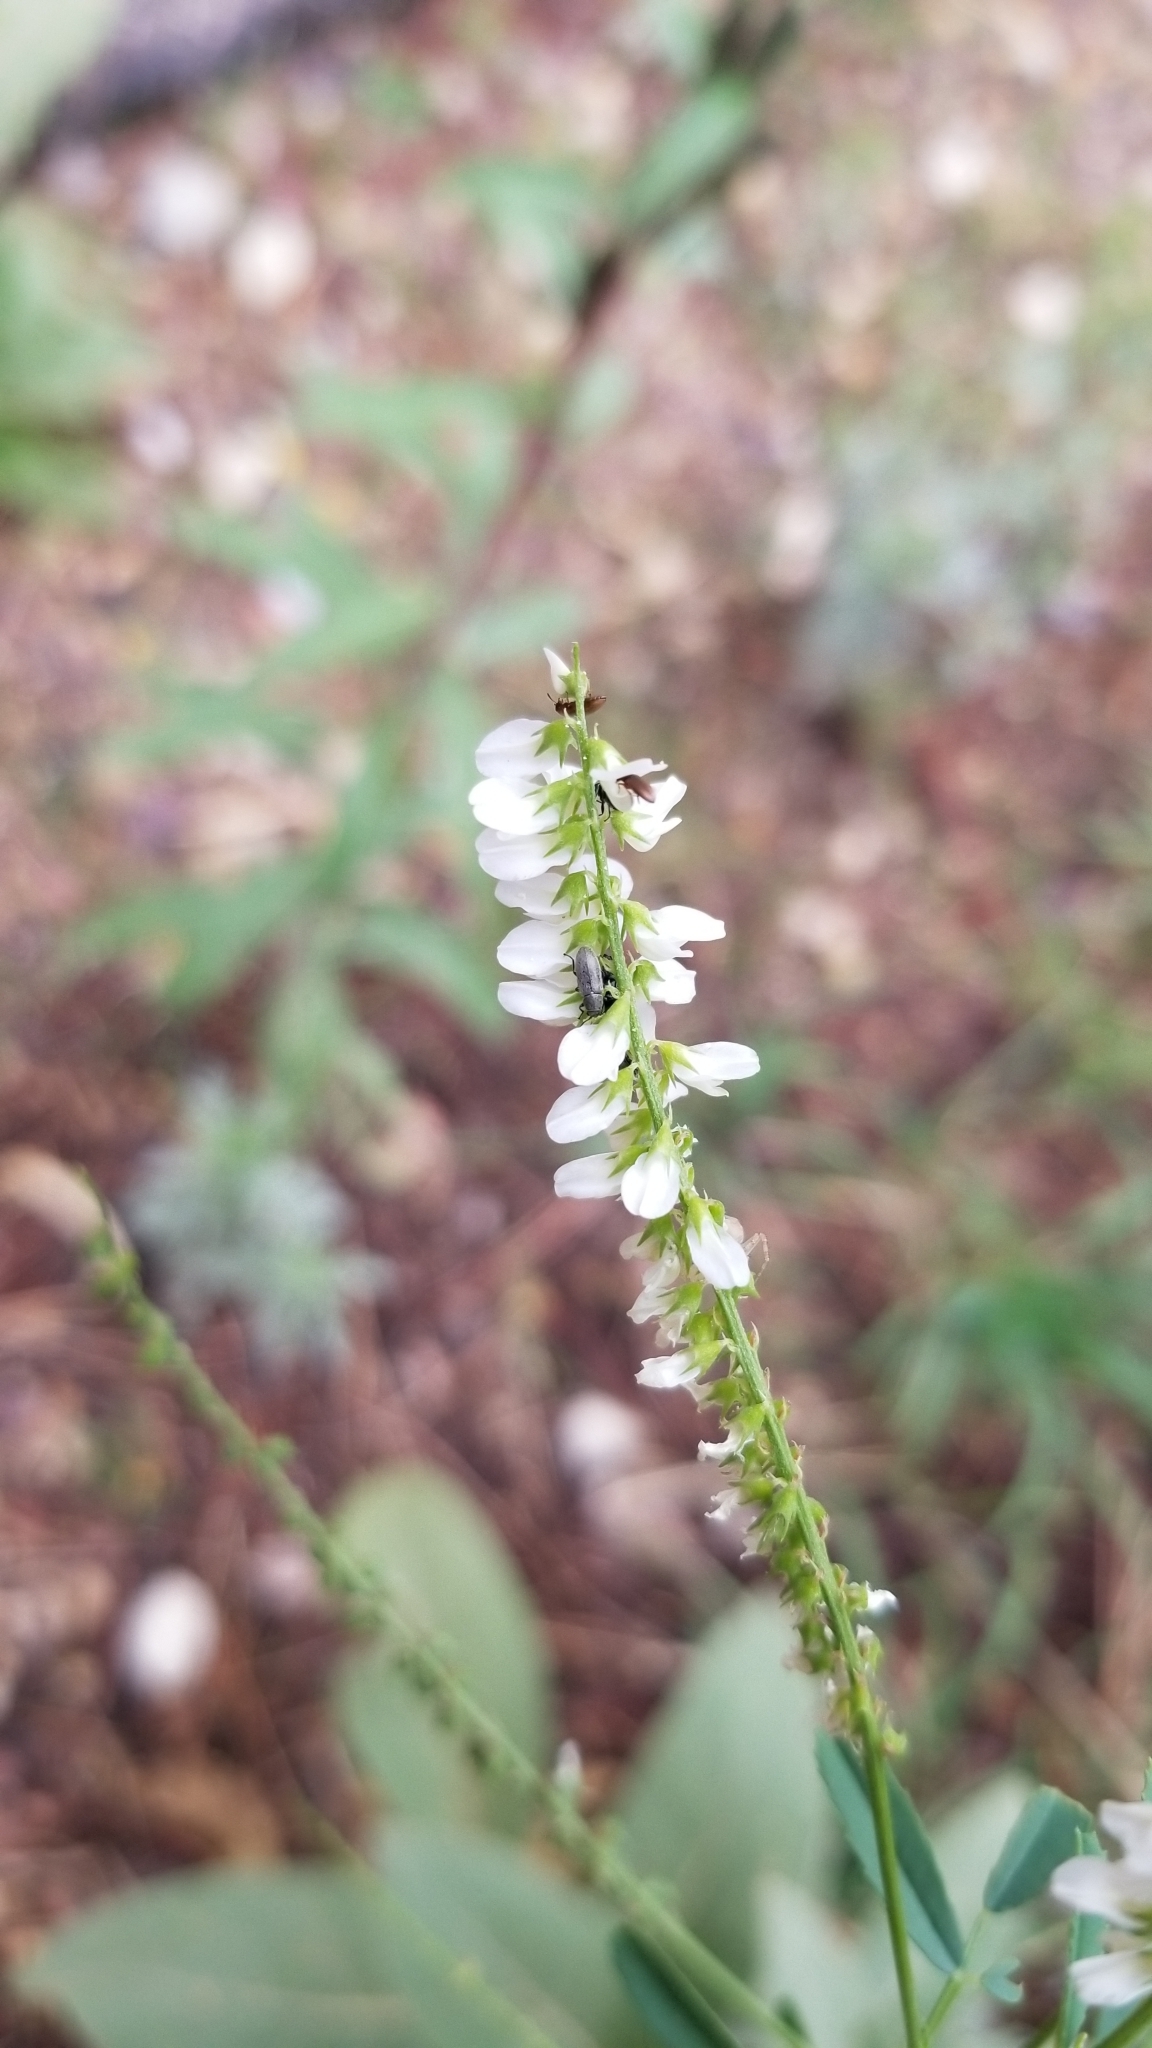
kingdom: Plantae
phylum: Tracheophyta
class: Magnoliopsida
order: Fabales
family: Fabaceae
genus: Melilotus
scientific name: Melilotus albus
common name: White melilot
